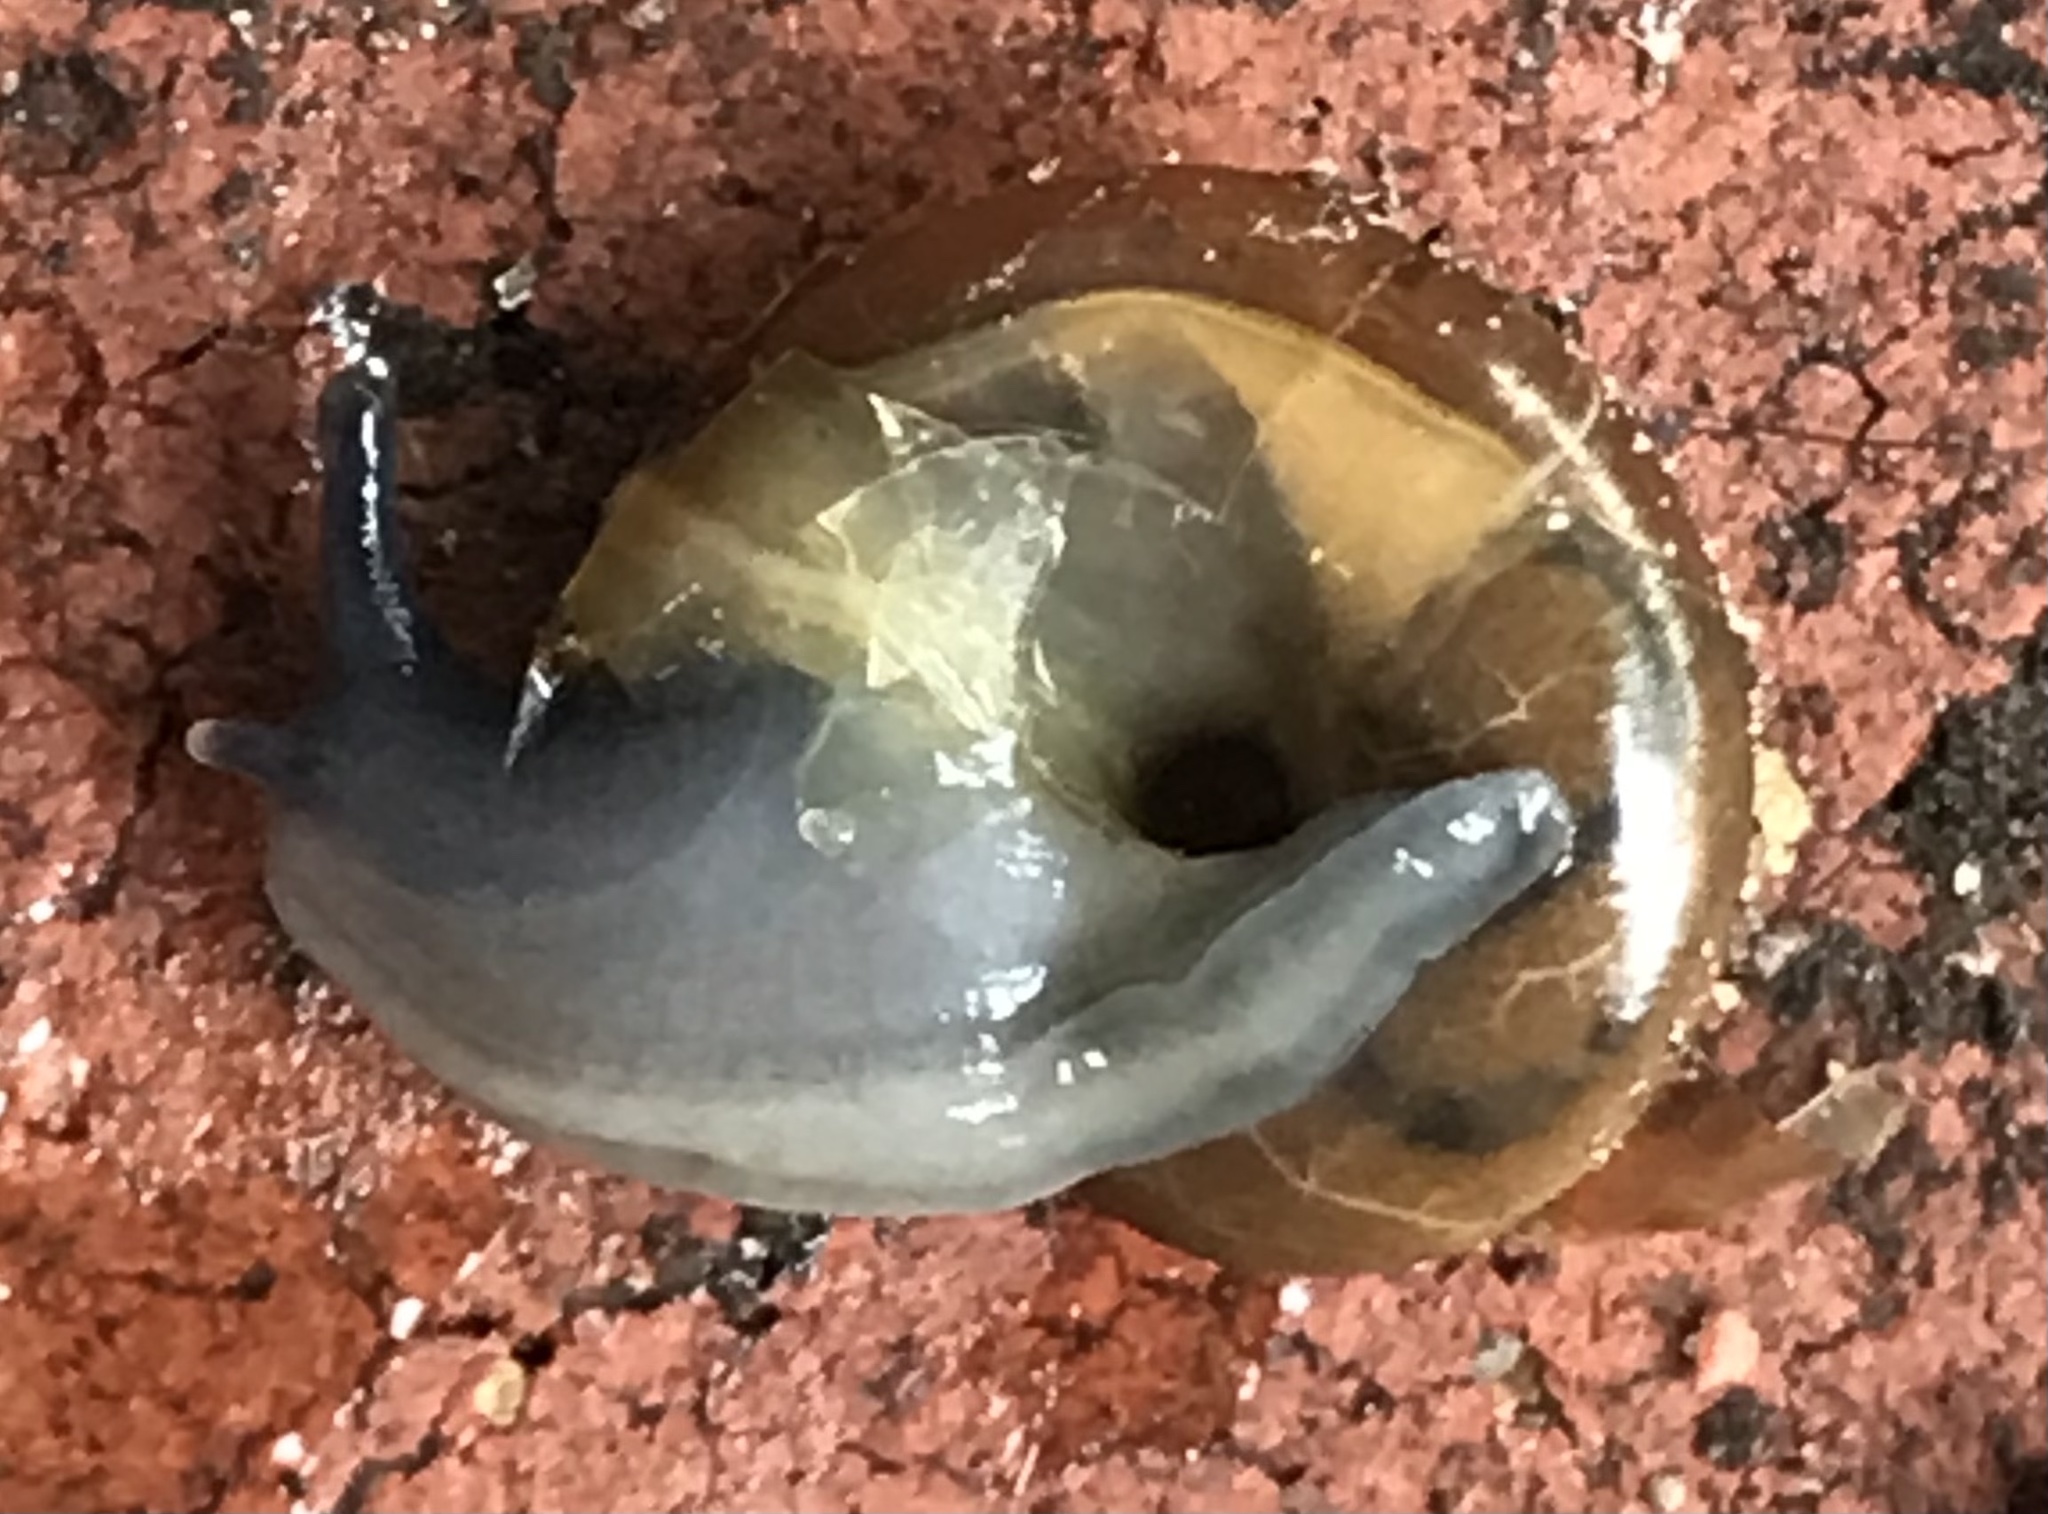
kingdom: Animalia
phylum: Mollusca
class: Gastropoda
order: Stylommatophora
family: Oxychilidae
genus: Oxychilus
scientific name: Oxychilus draparnaudi
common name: Draparnaud's glass snail
